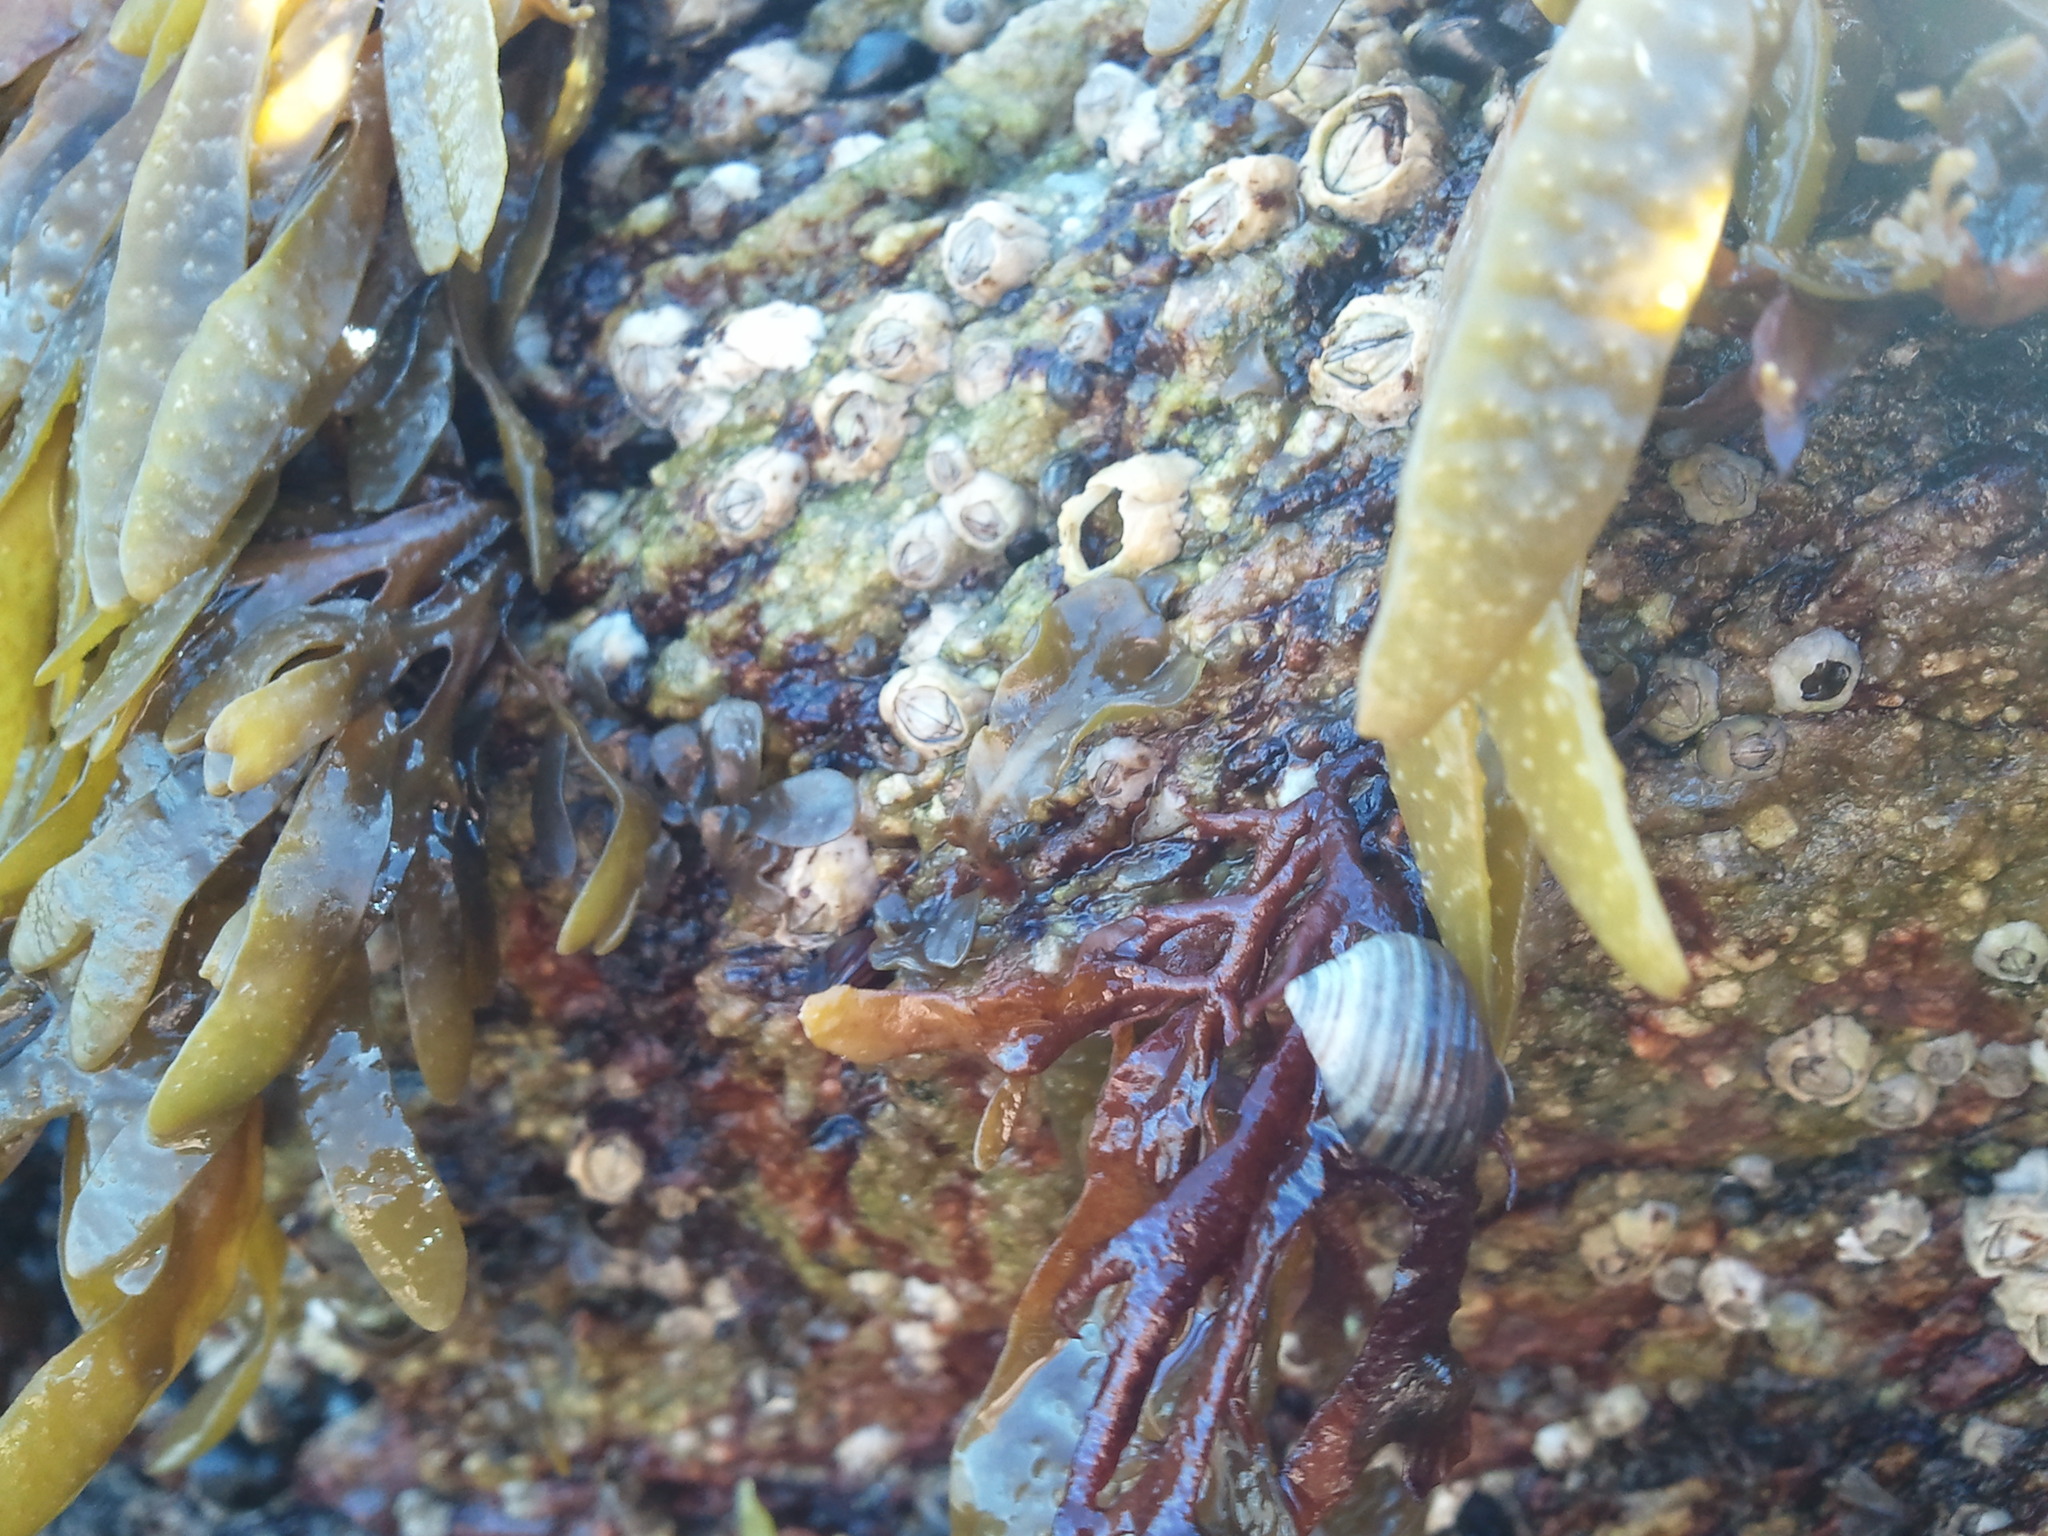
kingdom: Animalia
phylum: Arthropoda
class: Maxillopoda
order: Sessilia
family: Archaeobalanidae
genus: Semibalanus
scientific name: Semibalanus balanoides
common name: Acorn barnacle
